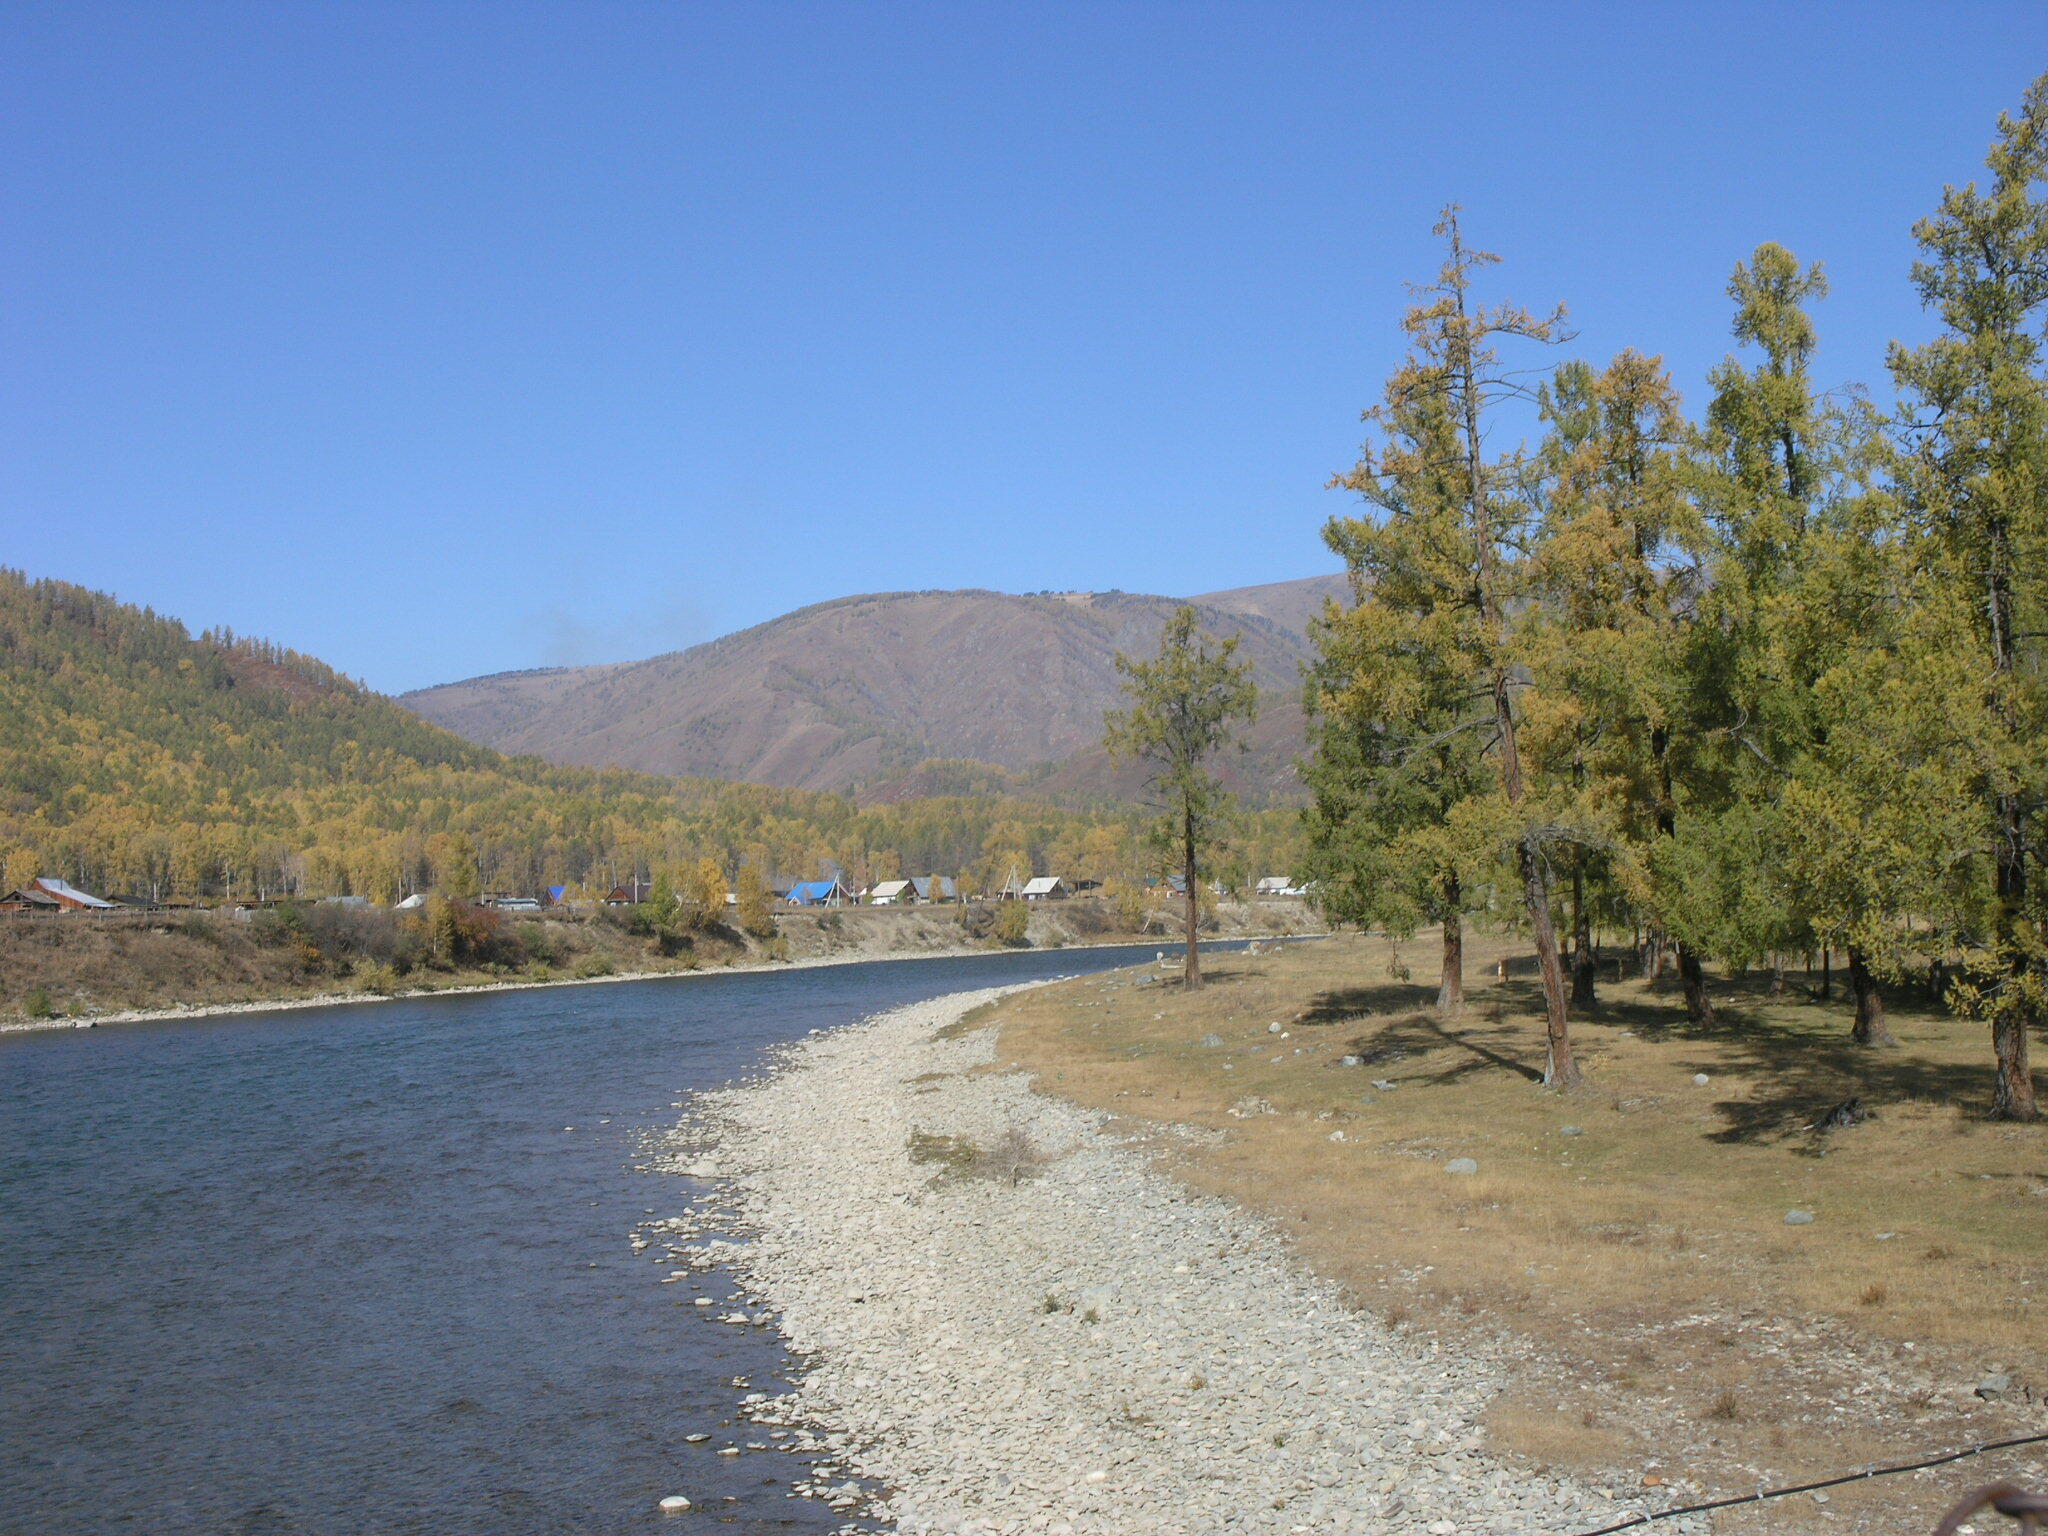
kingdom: Plantae
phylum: Tracheophyta
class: Pinopsida
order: Pinales
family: Pinaceae
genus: Larix
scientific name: Larix sibirica
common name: Siberian larch
